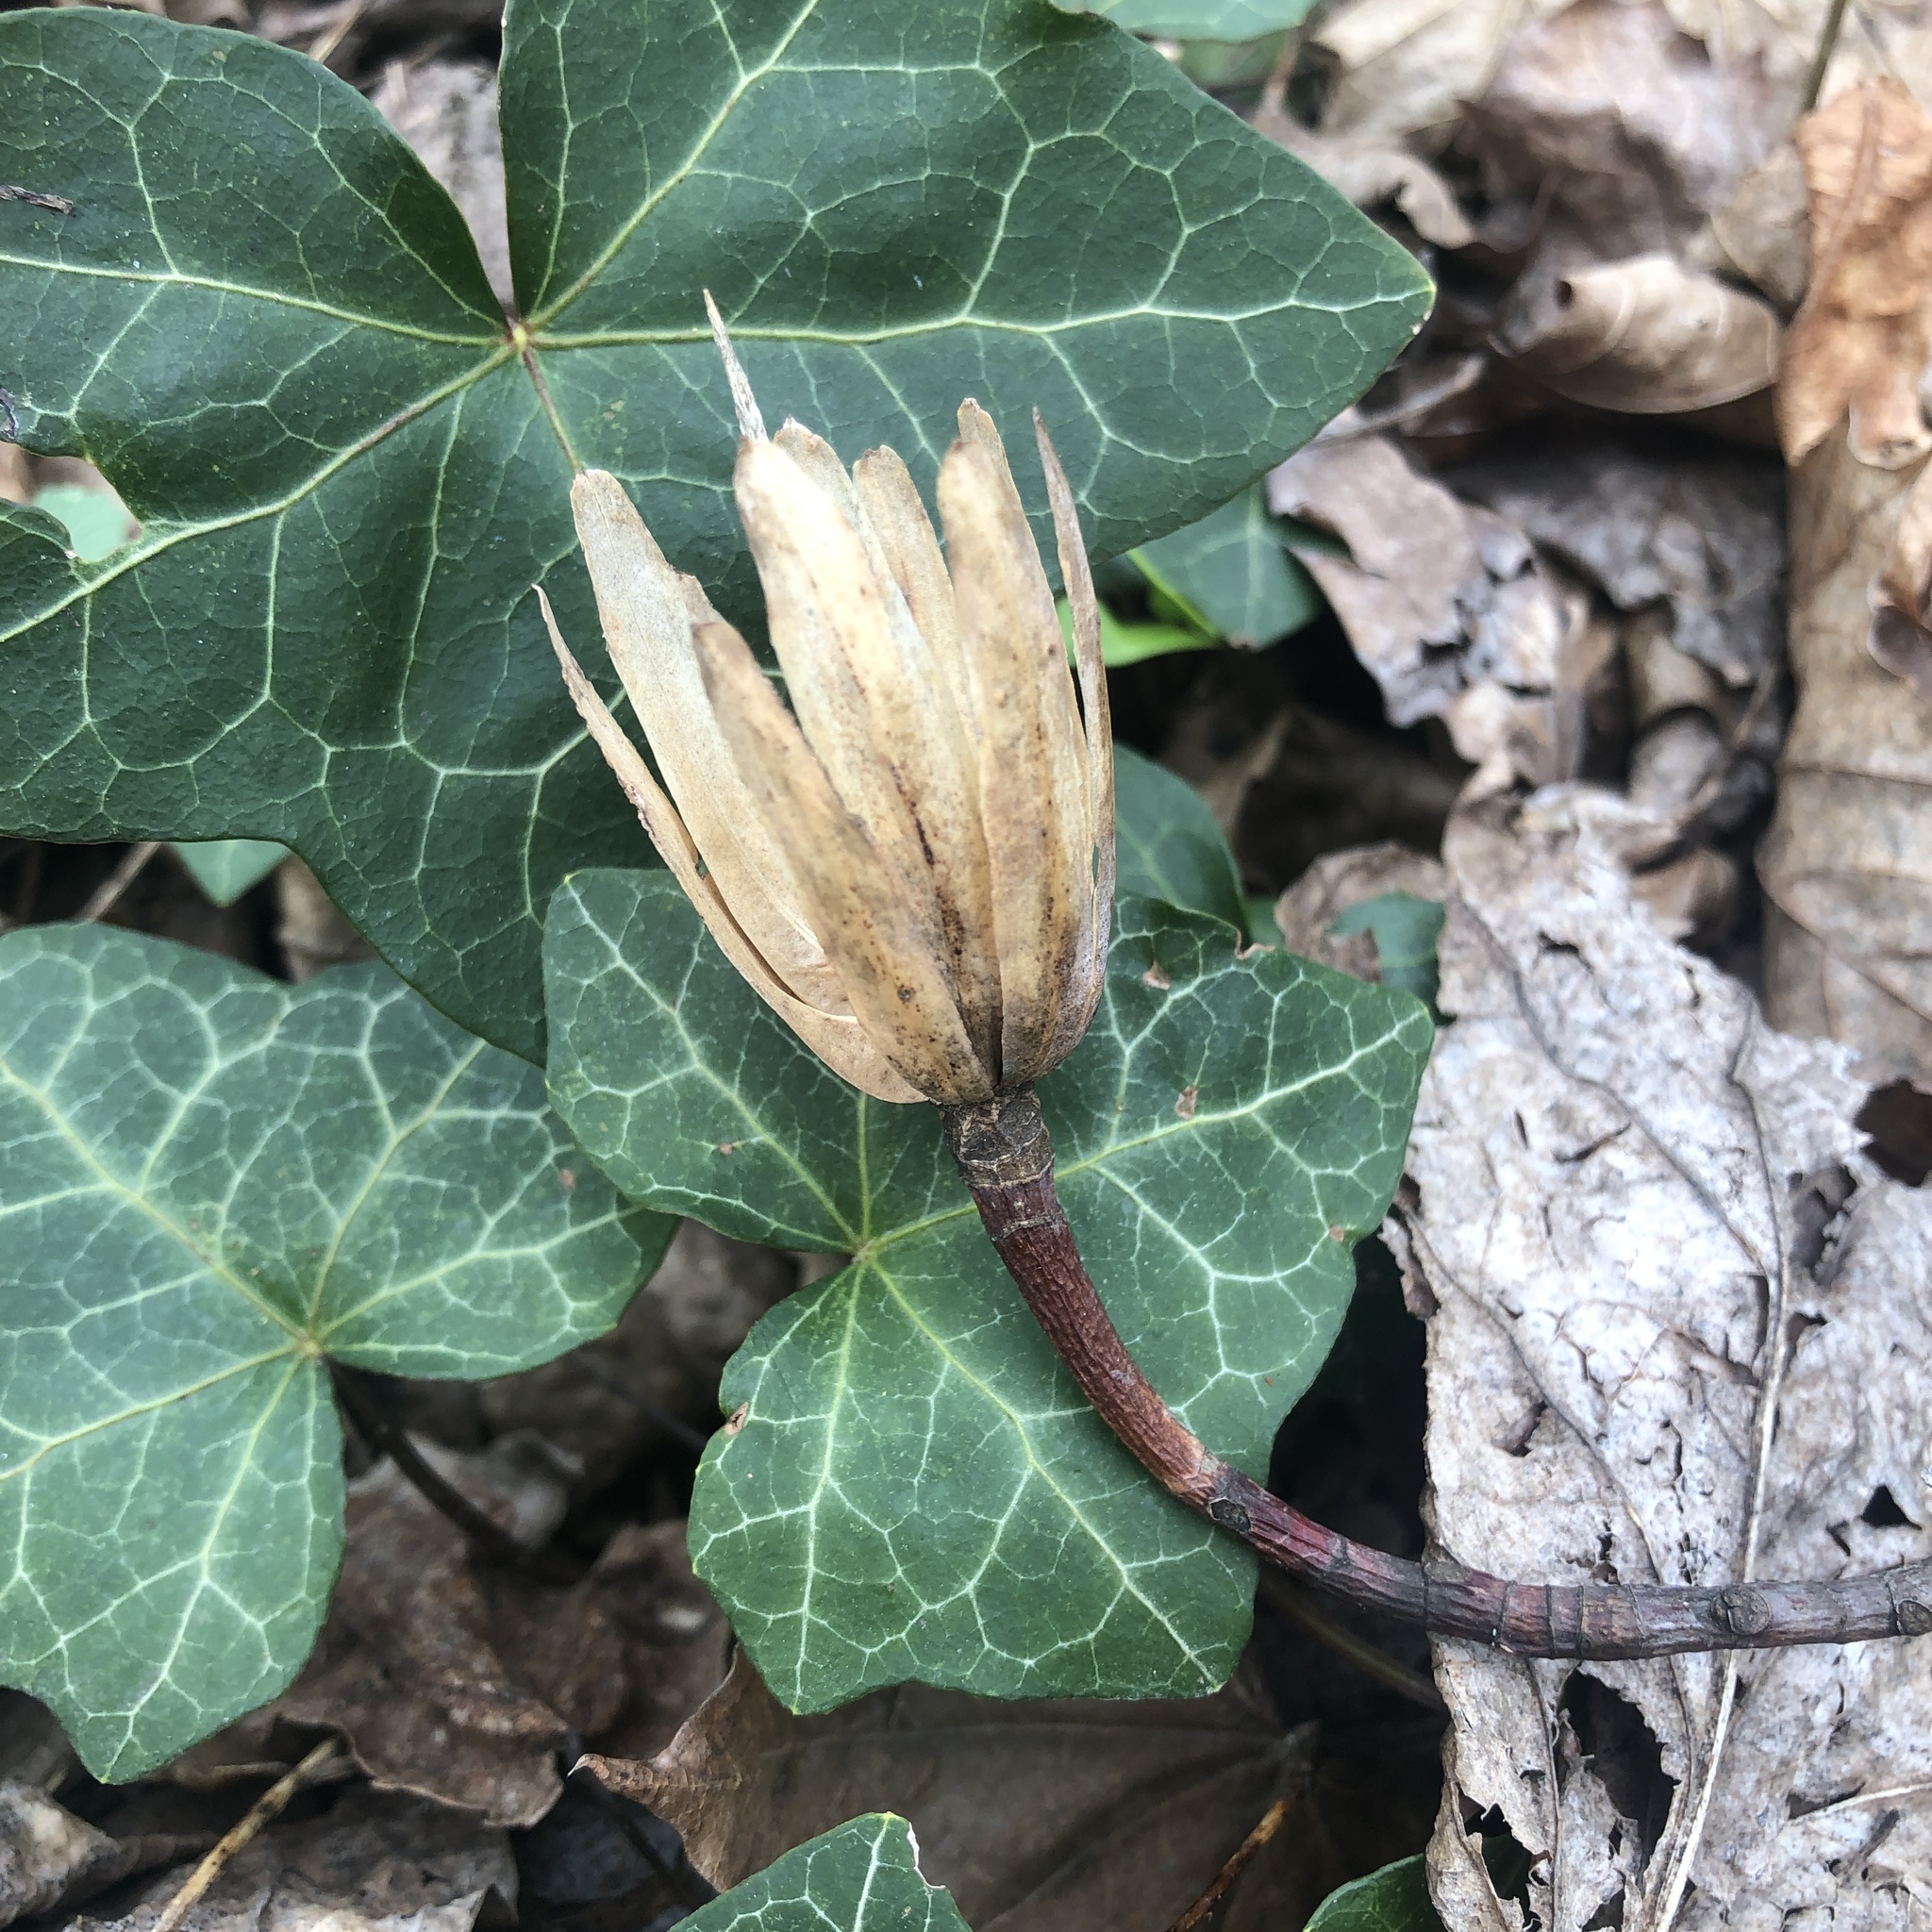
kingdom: Plantae
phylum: Tracheophyta
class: Magnoliopsida
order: Magnoliales
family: Magnoliaceae
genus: Liriodendron
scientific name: Liriodendron tulipifera
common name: Tulip tree
